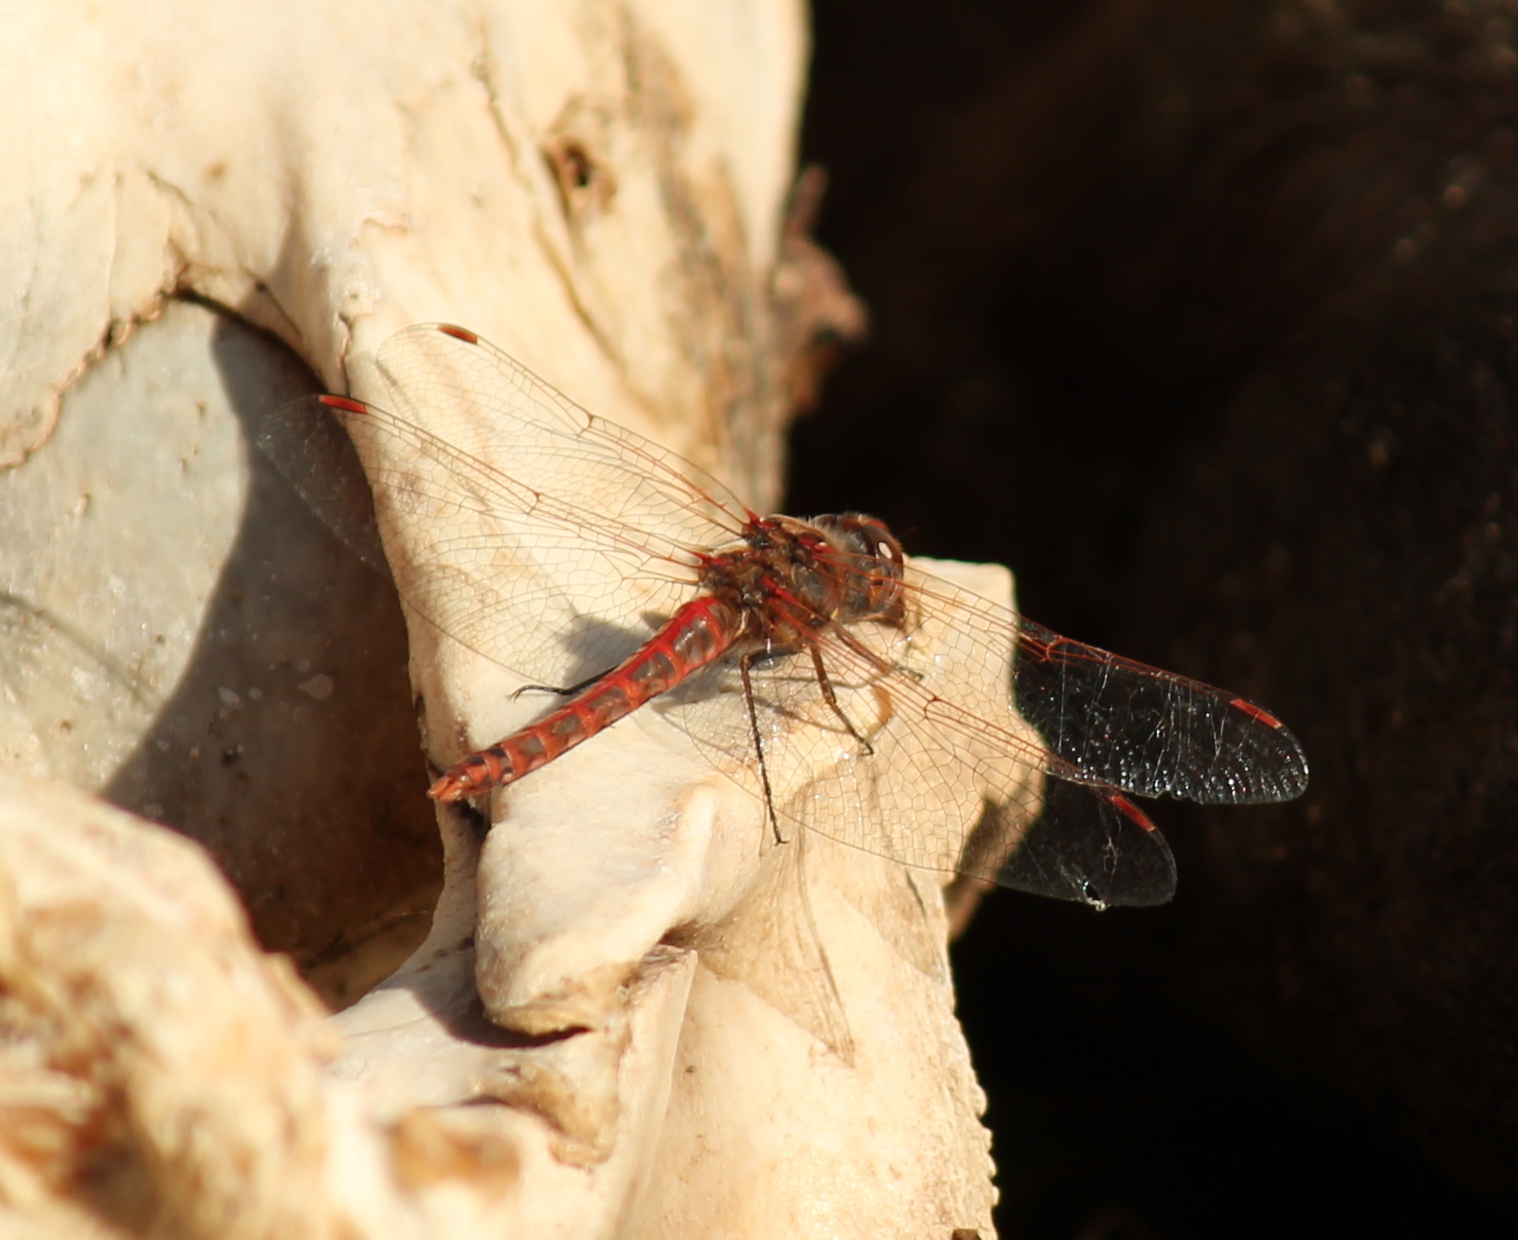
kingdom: Animalia
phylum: Arthropoda
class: Insecta
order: Odonata
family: Libellulidae
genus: Sympetrum
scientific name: Sympetrum corruptum
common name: Variegated meadowhawk
